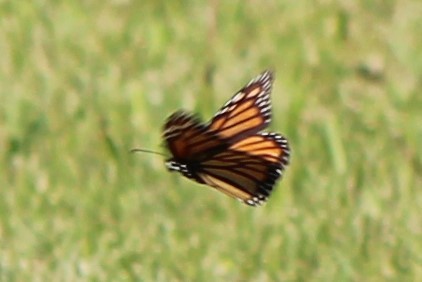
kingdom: Animalia
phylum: Arthropoda
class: Insecta
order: Lepidoptera
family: Nymphalidae
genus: Danaus
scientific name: Danaus plexippus
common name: Monarch
